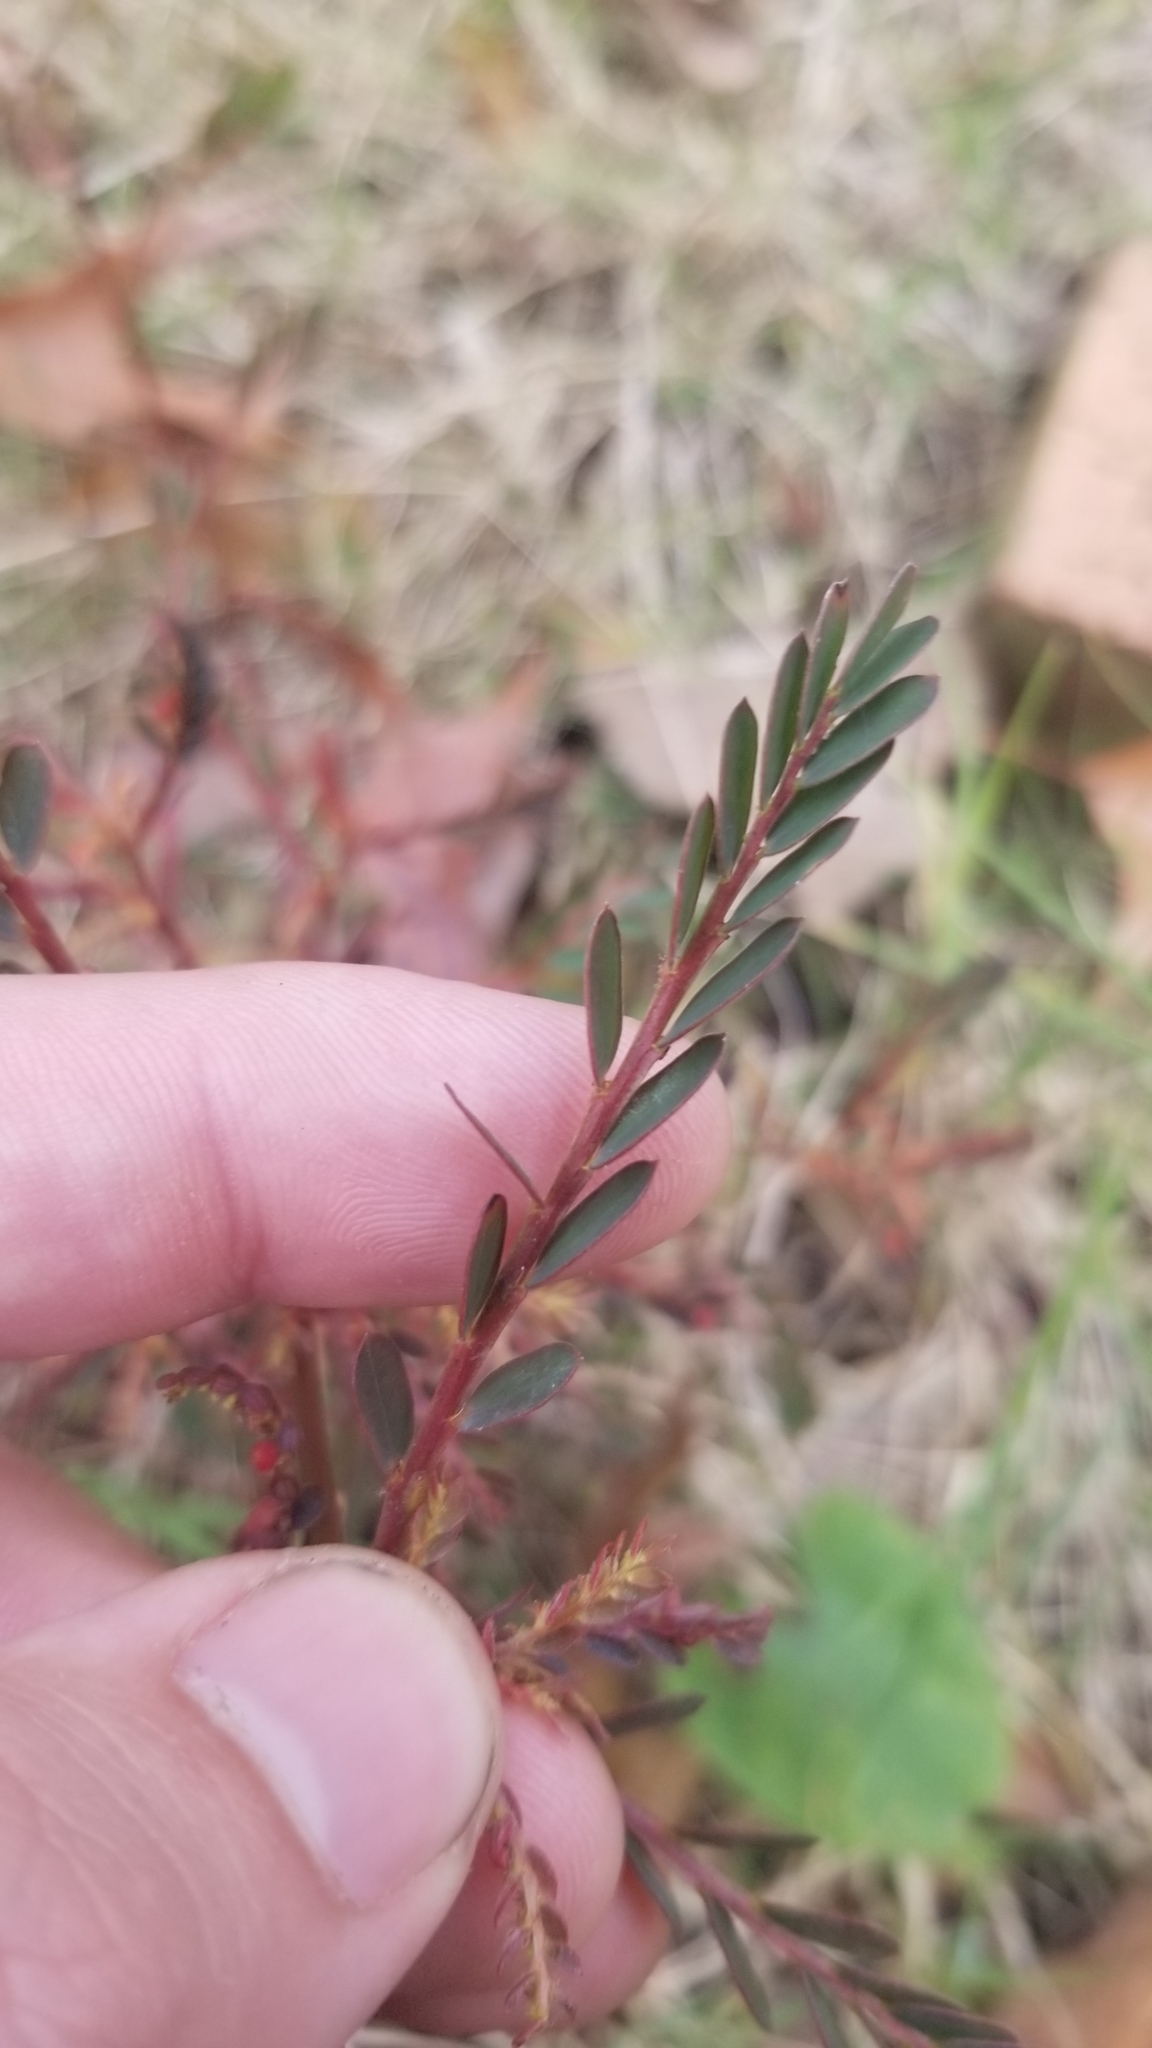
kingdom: Plantae
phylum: Tracheophyta
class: Magnoliopsida
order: Malpighiales
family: Phyllanthaceae
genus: Phyllanthus
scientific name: Phyllanthus urinaria
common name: Chamber bitter
